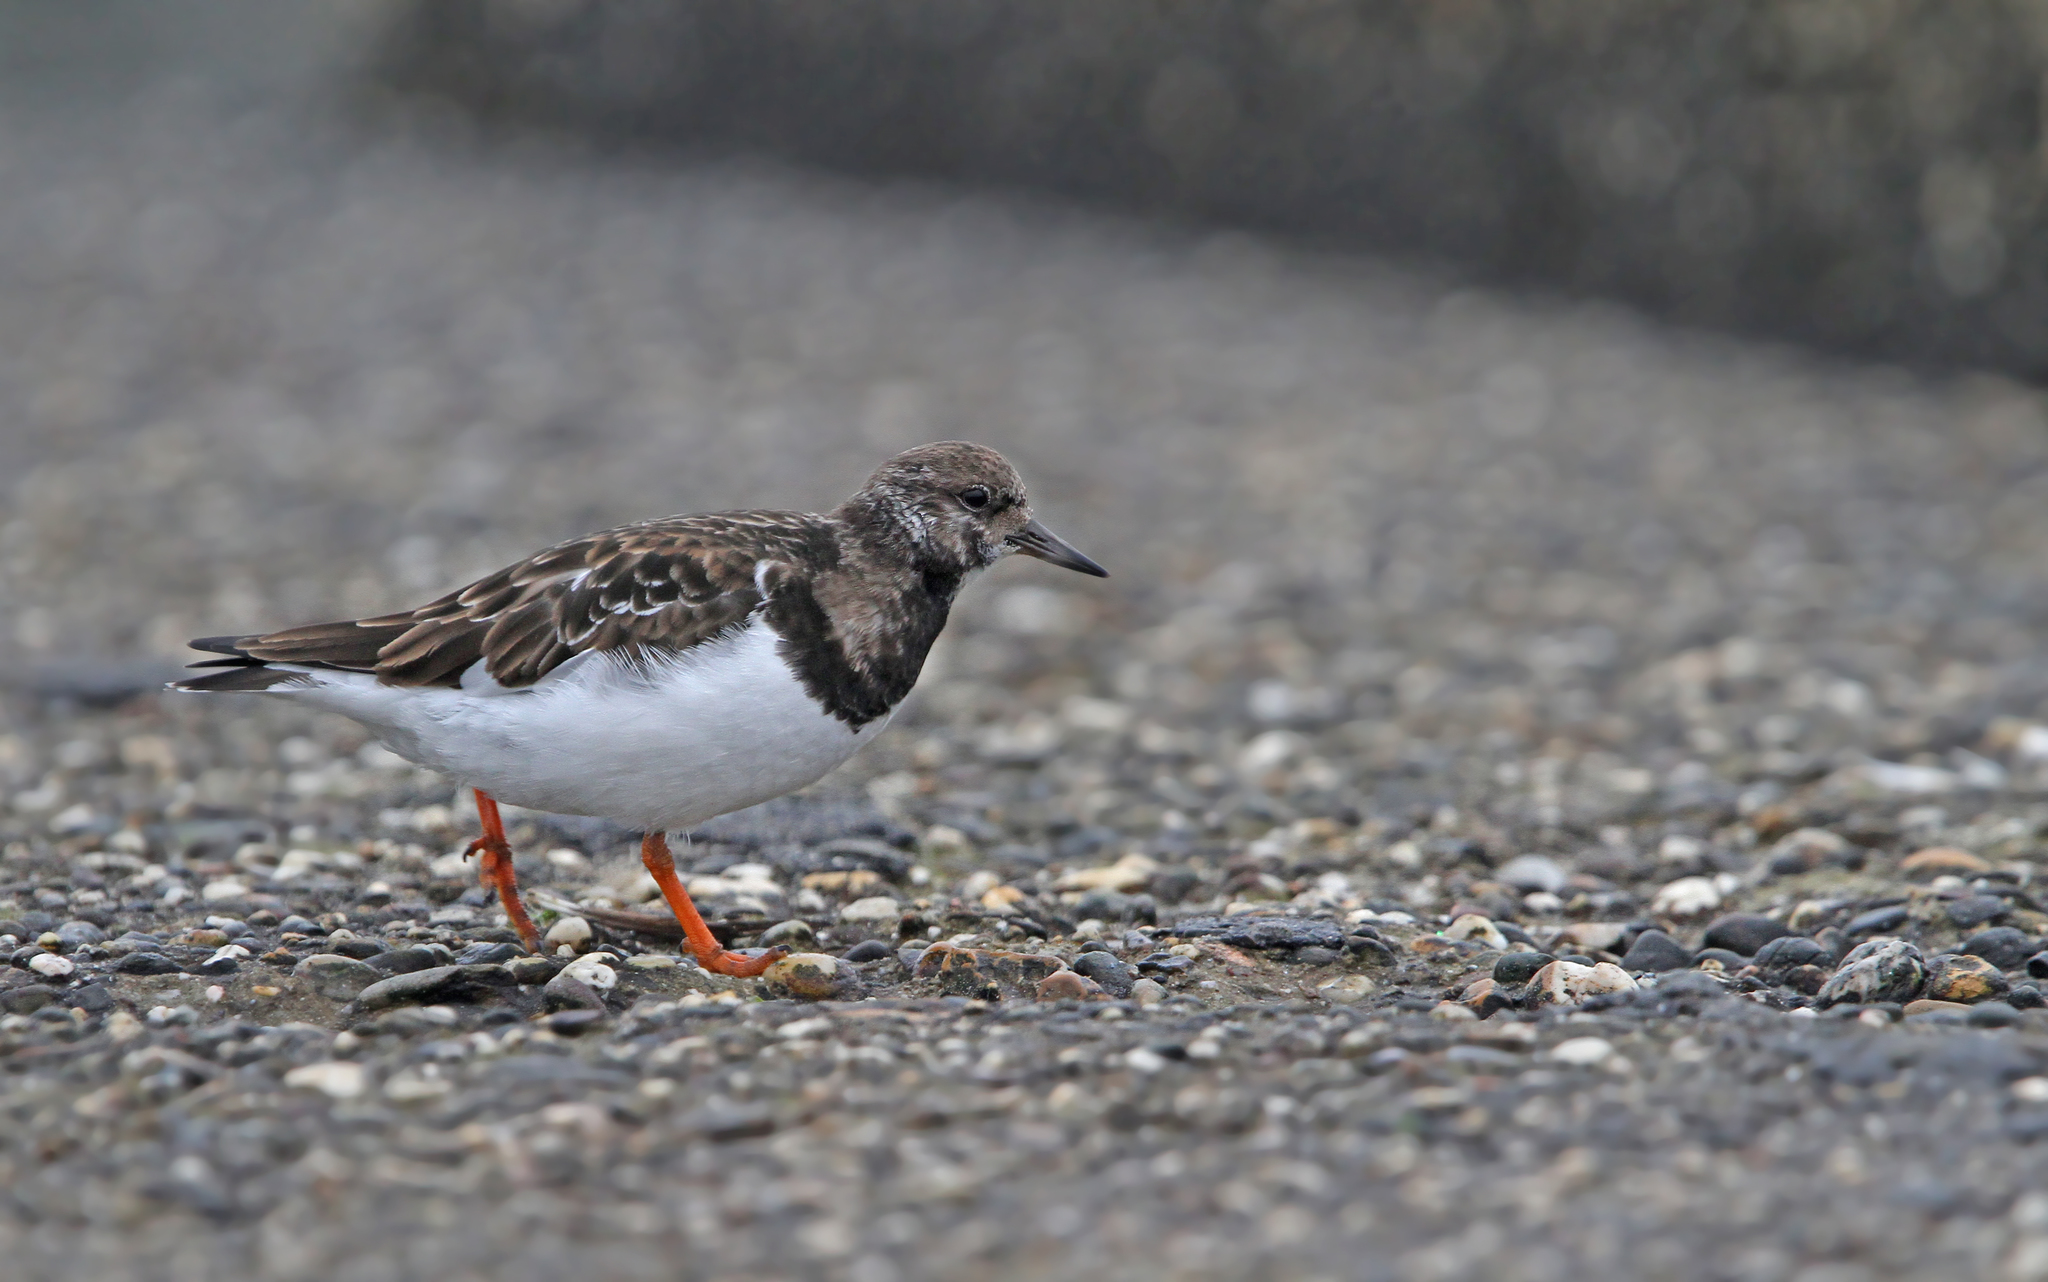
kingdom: Animalia
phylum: Chordata
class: Aves
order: Charadriiformes
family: Scolopacidae
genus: Arenaria
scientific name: Arenaria interpres
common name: Ruddy turnstone
